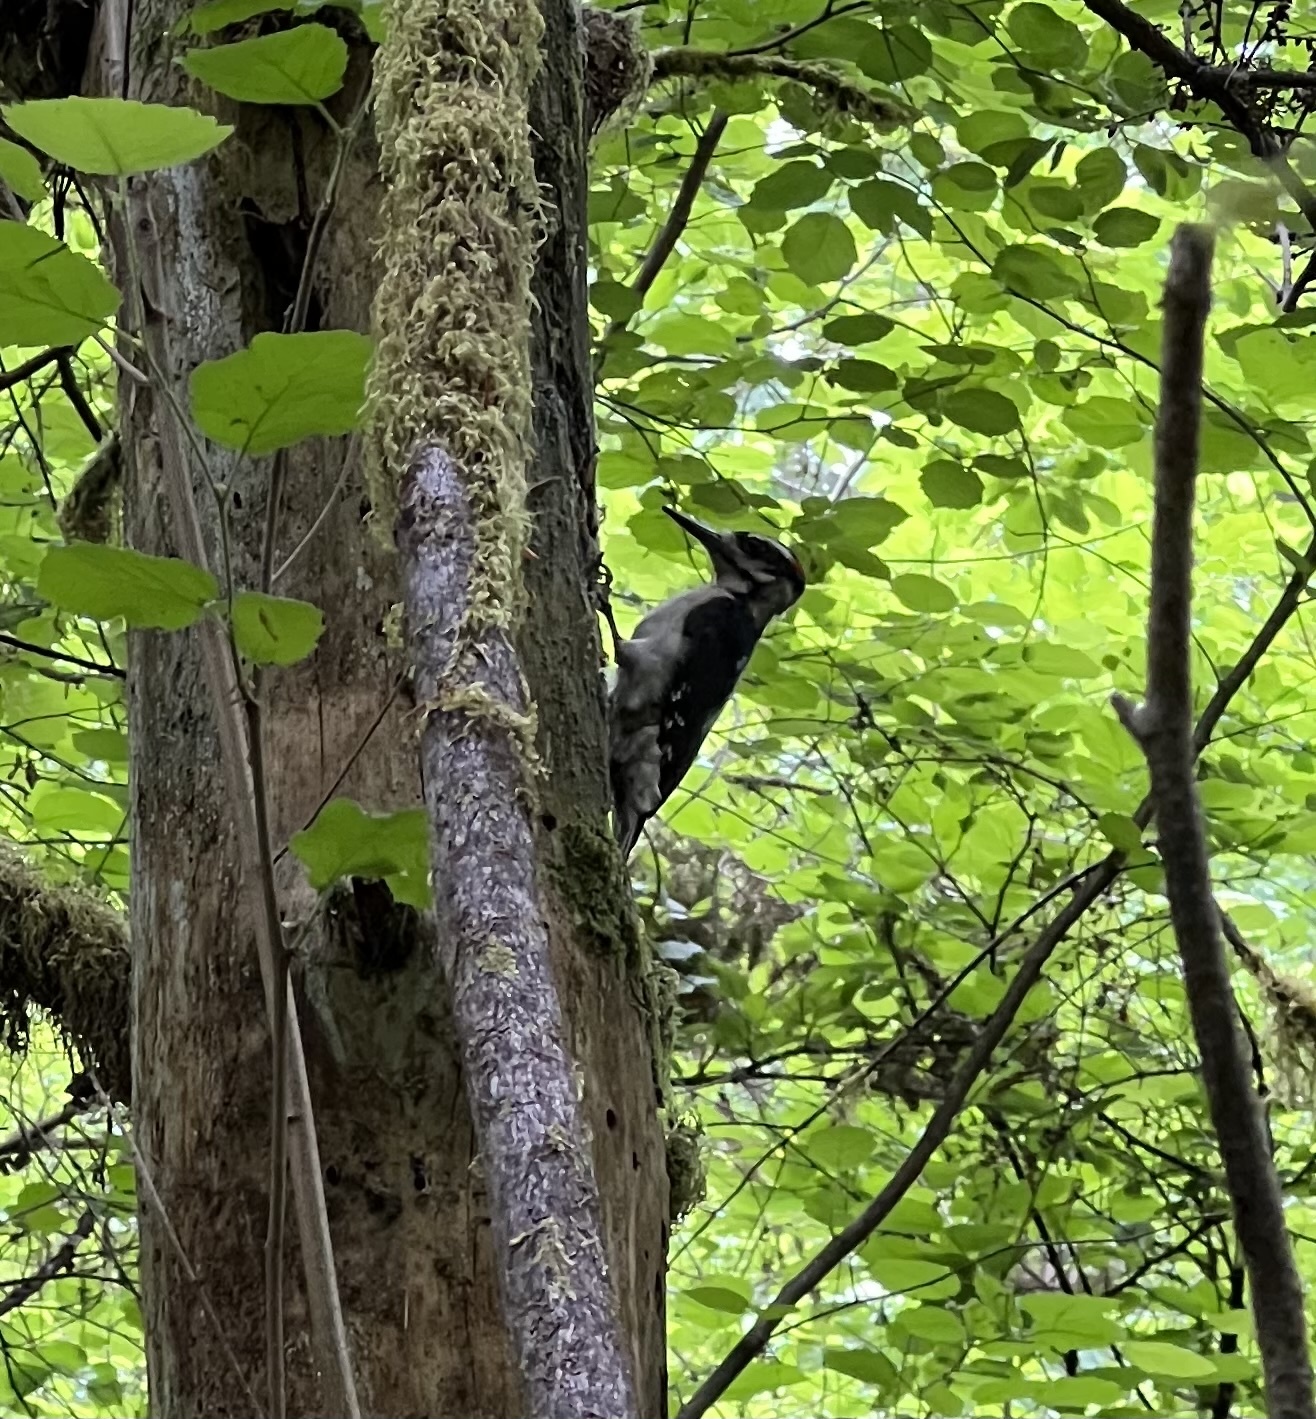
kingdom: Animalia
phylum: Chordata
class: Aves
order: Piciformes
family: Picidae
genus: Leuconotopicus
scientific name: Leuconotopicus villosus
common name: Hairy woodpecker
